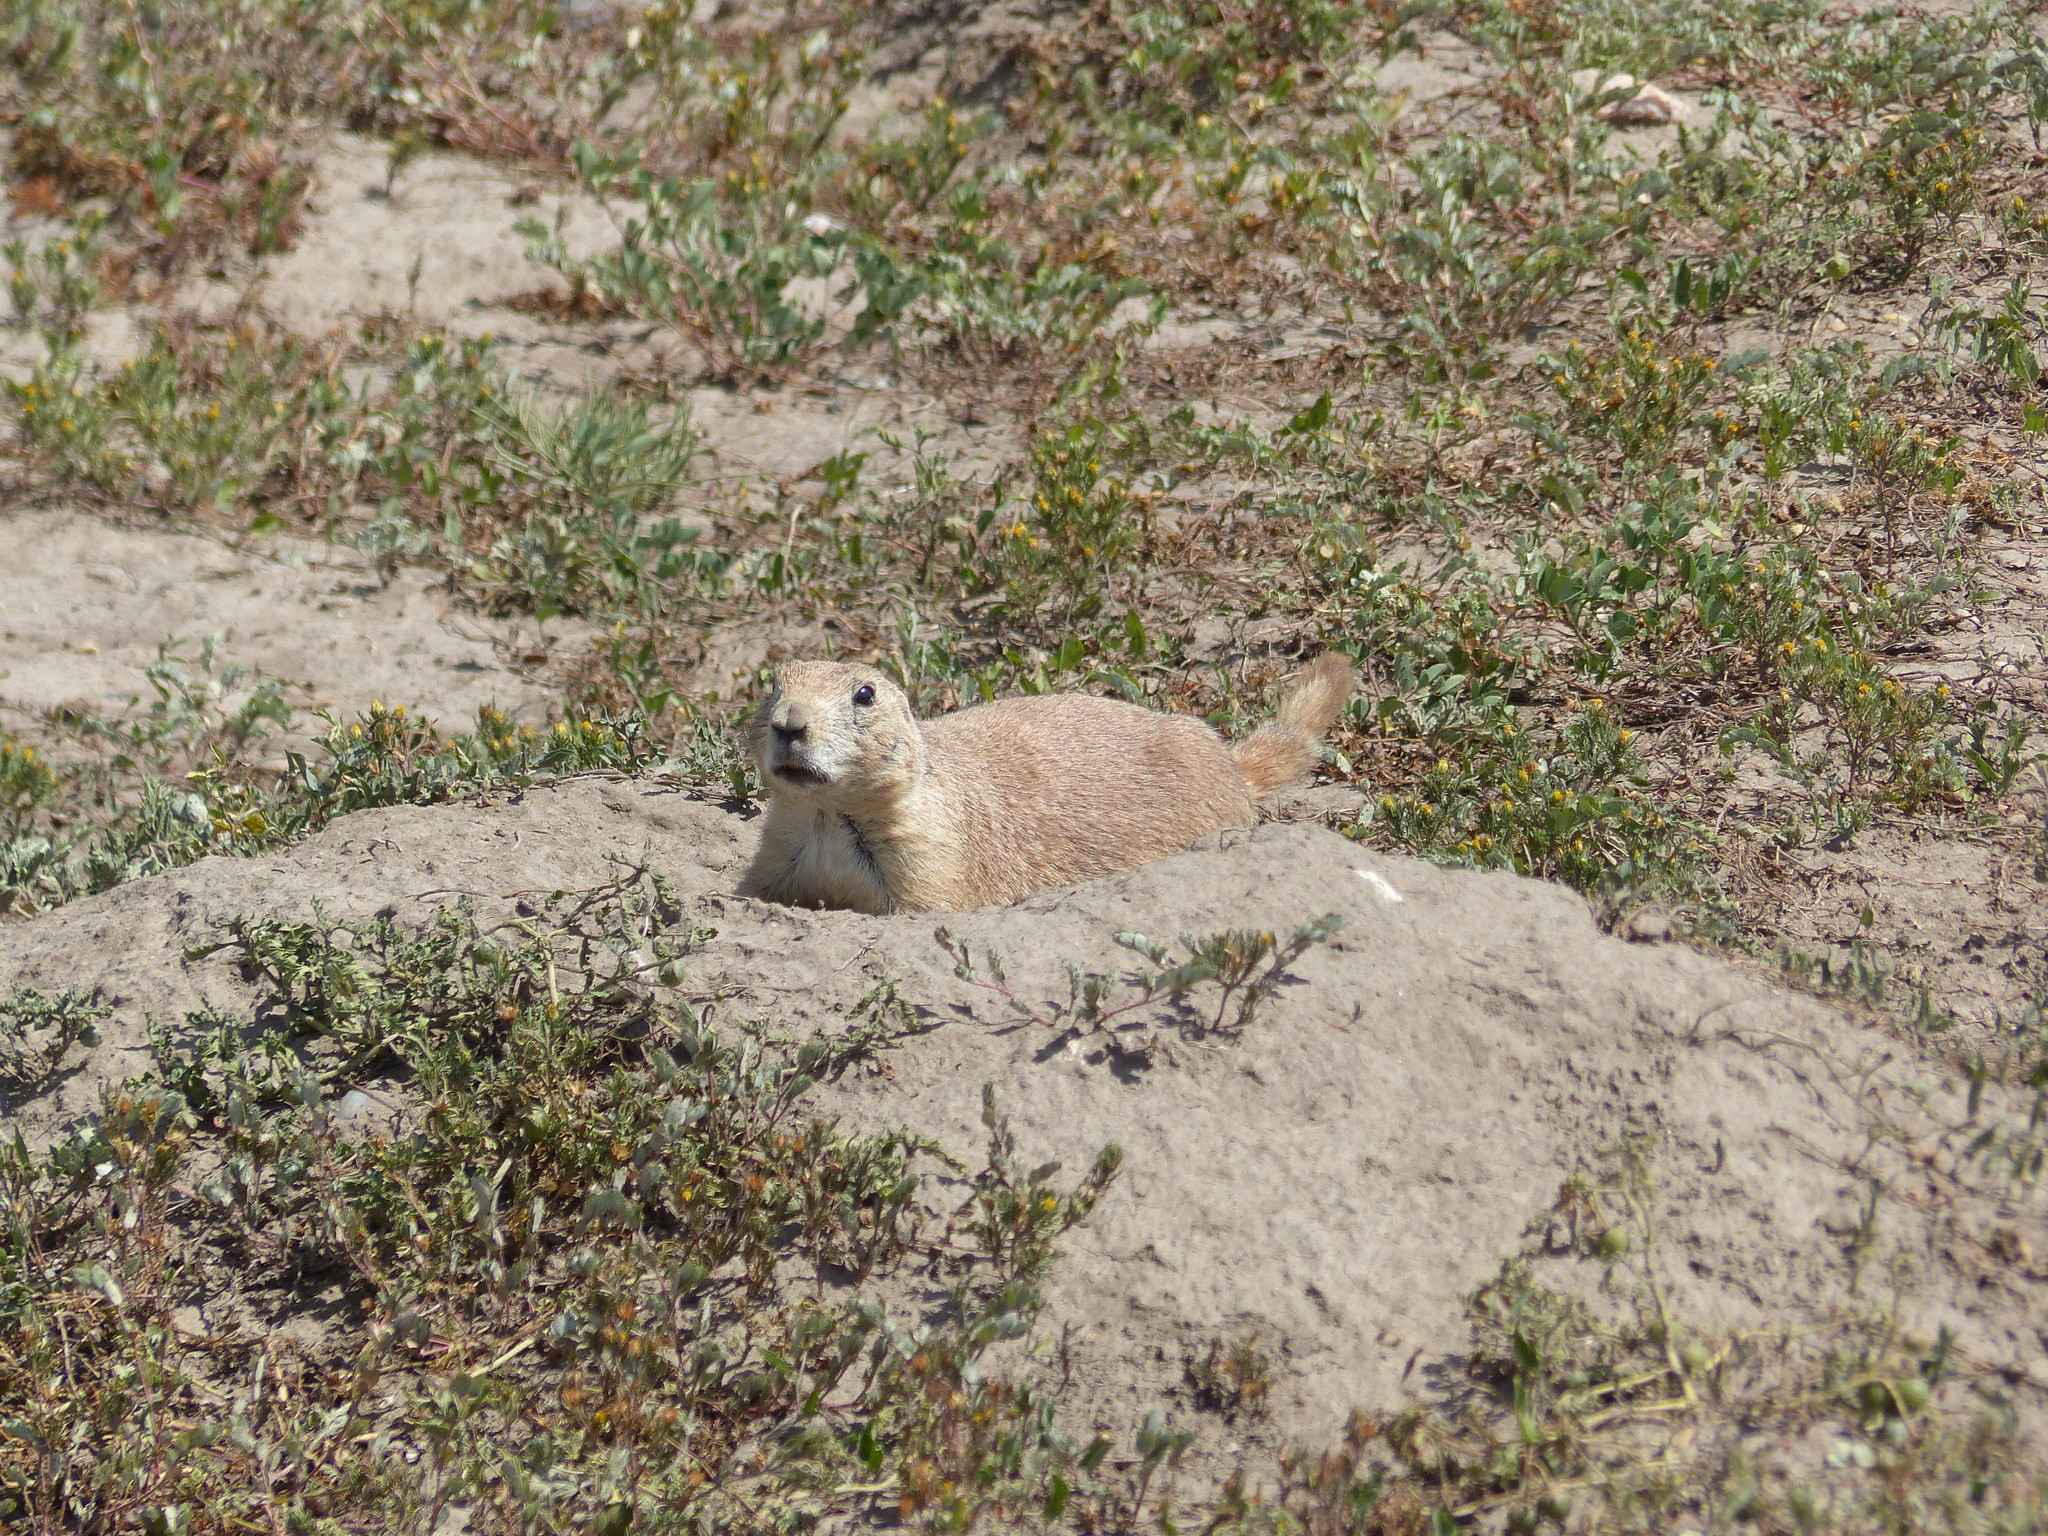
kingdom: Animalia
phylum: Chordata
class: Mammalia
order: Rodentia
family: Sciuridae
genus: Cynomys
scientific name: Cynomys ludovicianus
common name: Black-tailed prairie dog
